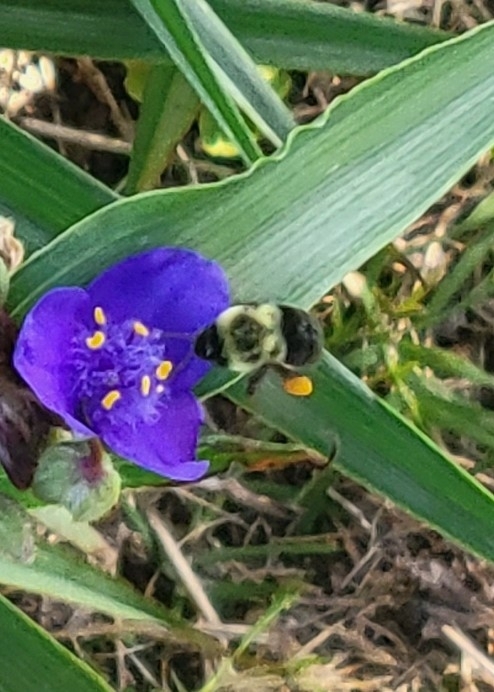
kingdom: Animalia
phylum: Arthropoda
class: Insecta
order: Hymenoptera
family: Apidae
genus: Bombus
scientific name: Bombus impatiens
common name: Common eastern bumble bee
